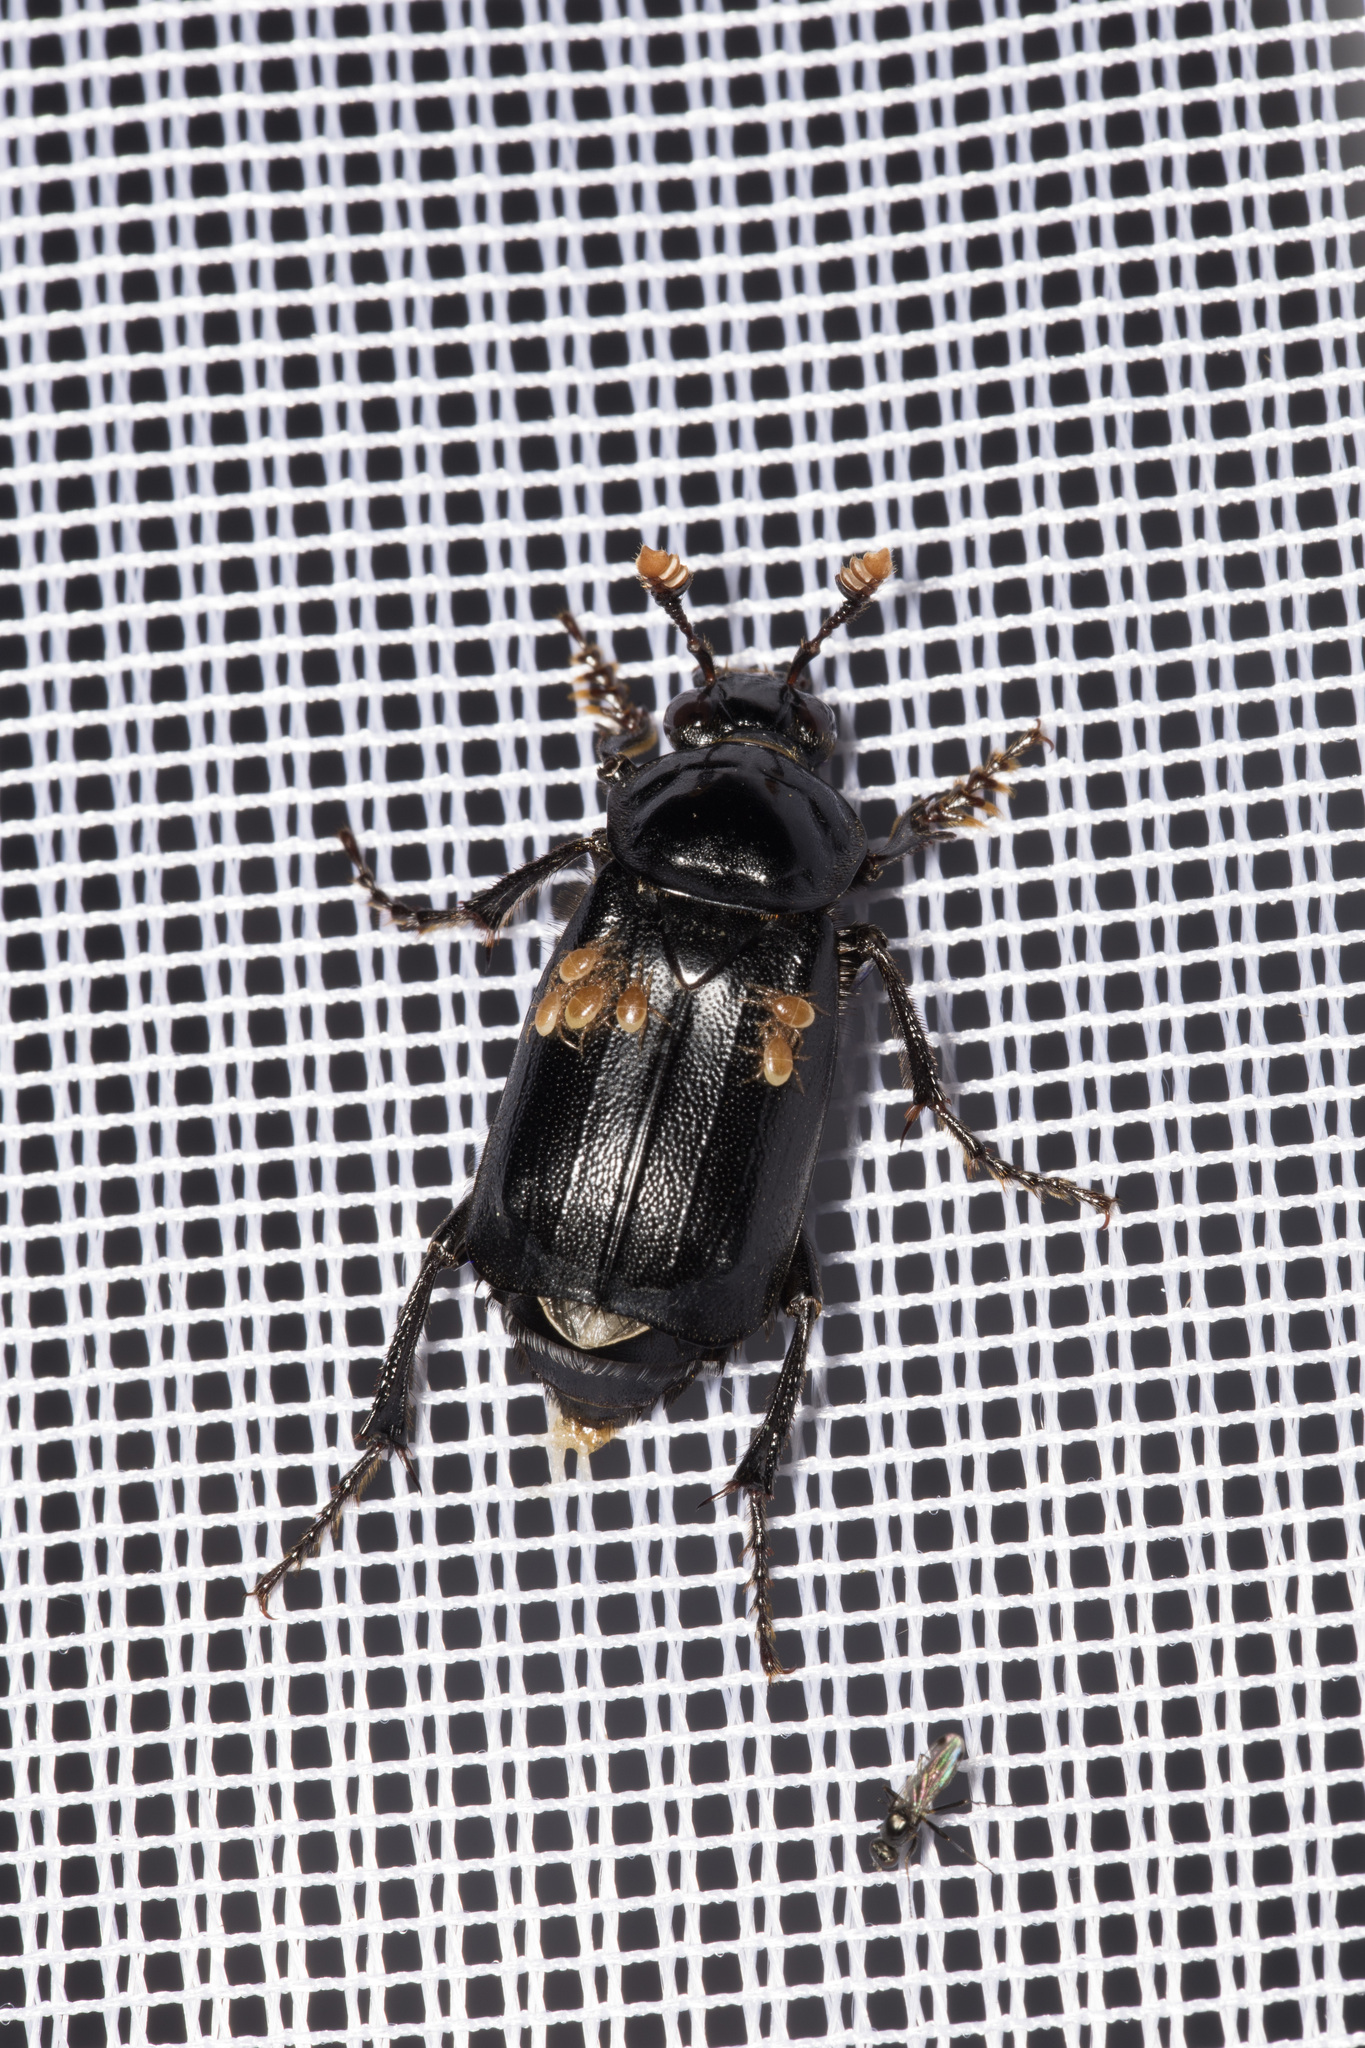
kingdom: Animalia
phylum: Arthropoda
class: Insecta
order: Coleoptera
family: Staphylinidae
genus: Nicrophorus
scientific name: Nicrophorus humator
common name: Black sexton beetle
